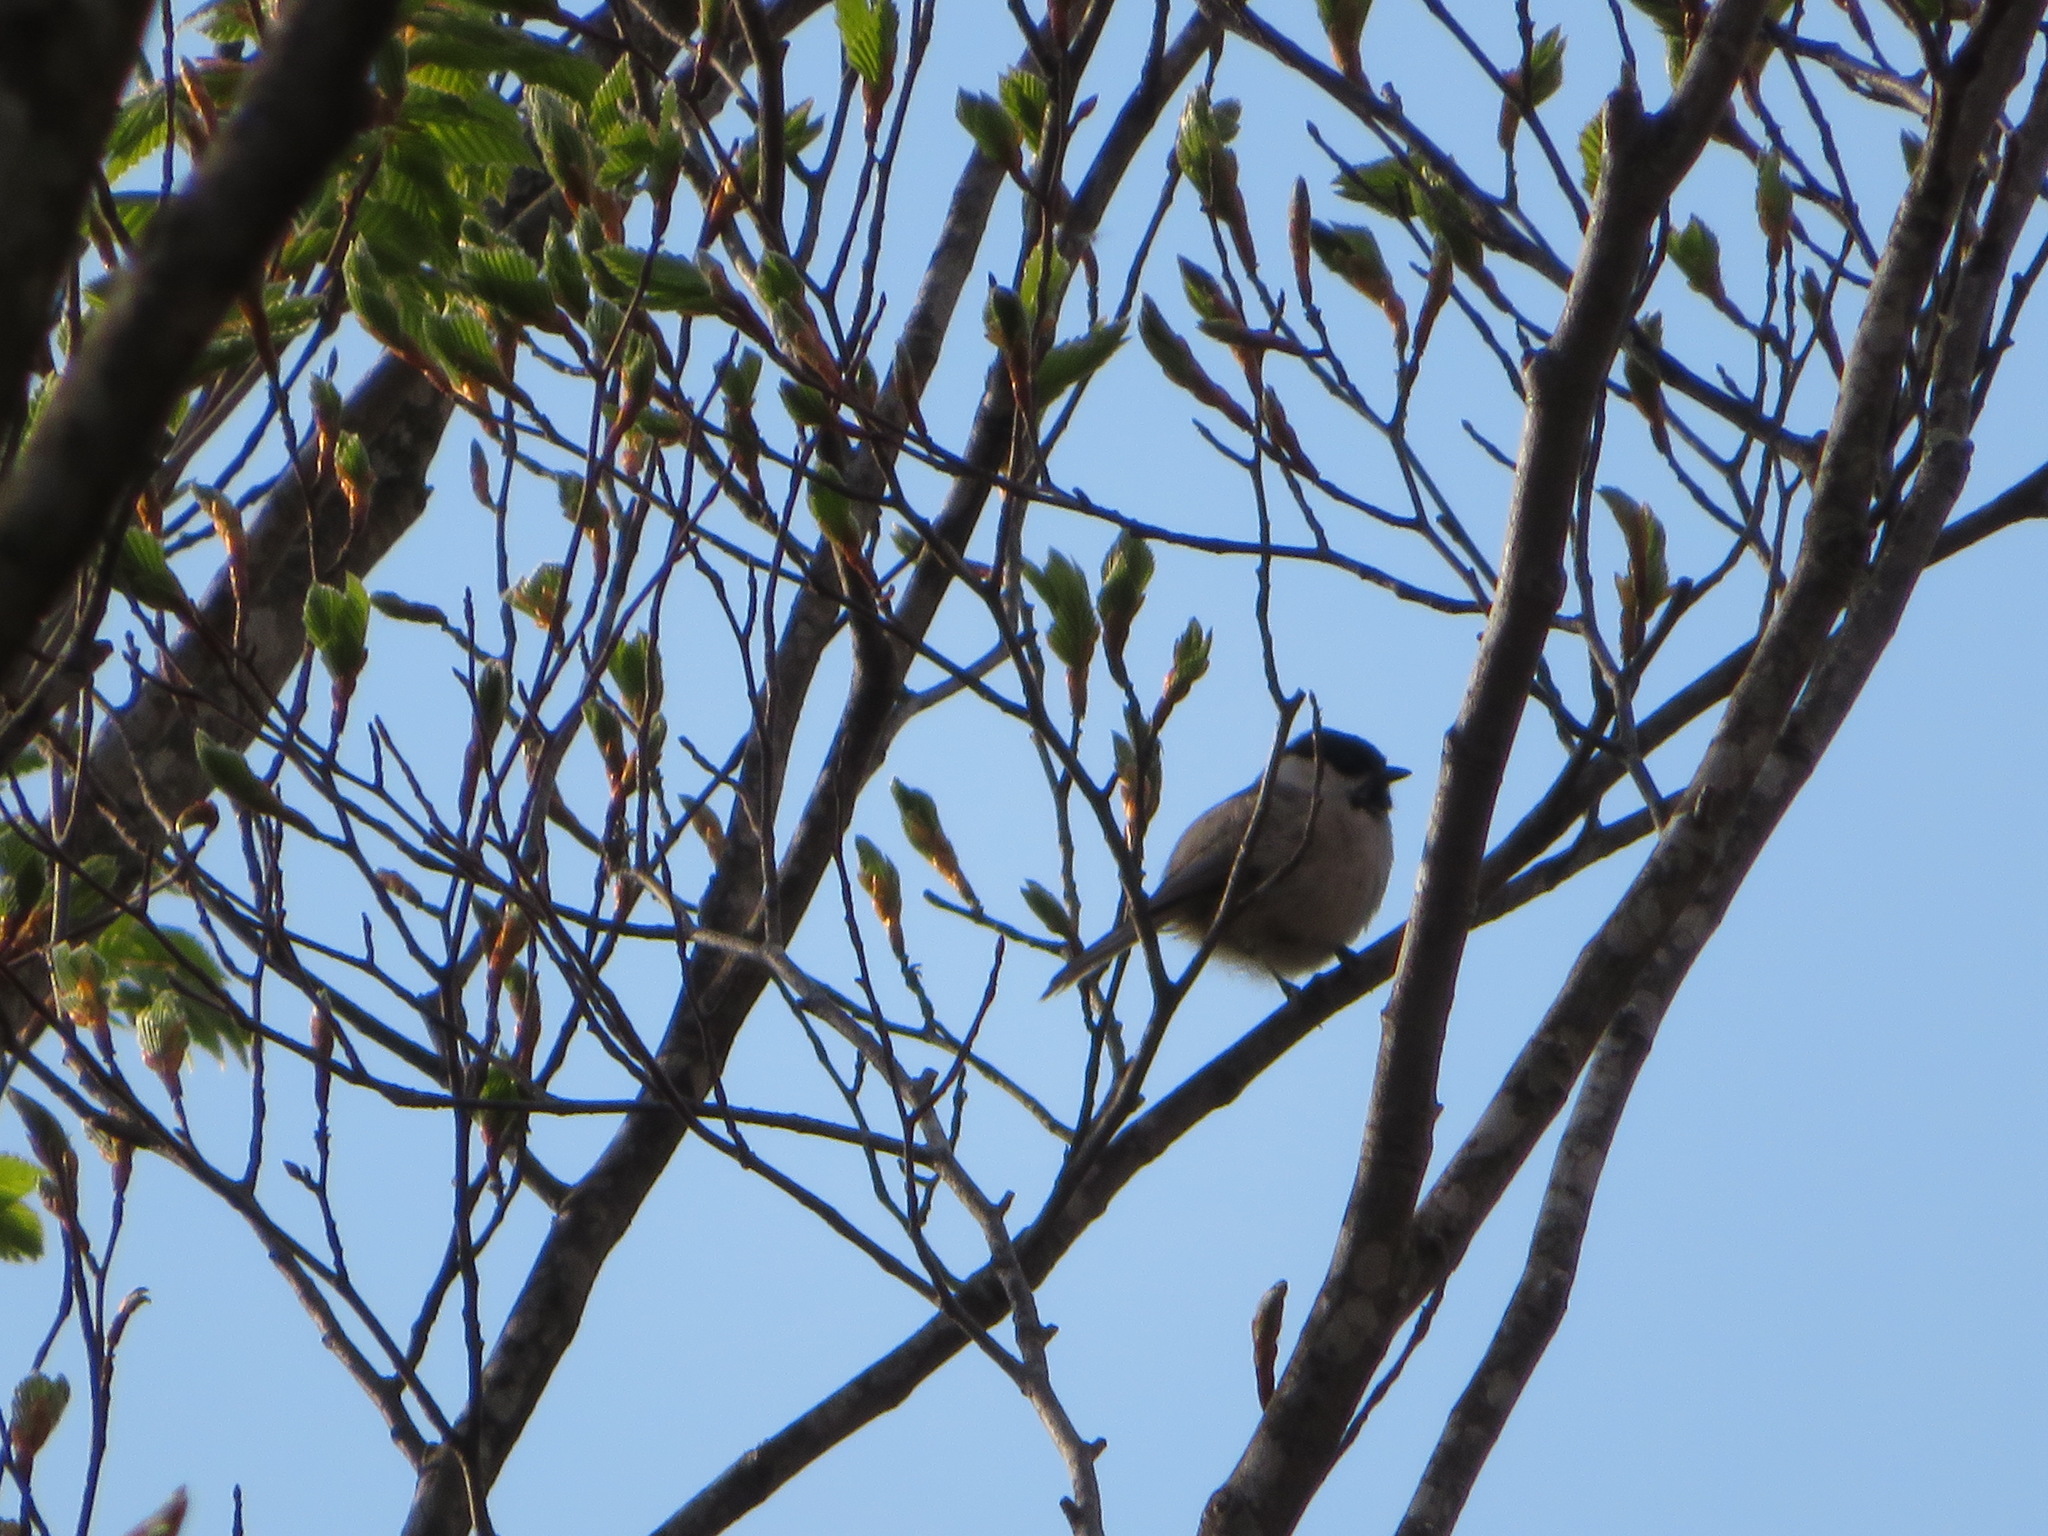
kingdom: Animalia
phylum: Chordata
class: Aves
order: Passeriformes
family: Paridae
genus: Poecile
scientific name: Poecile montanus
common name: Willow tit
